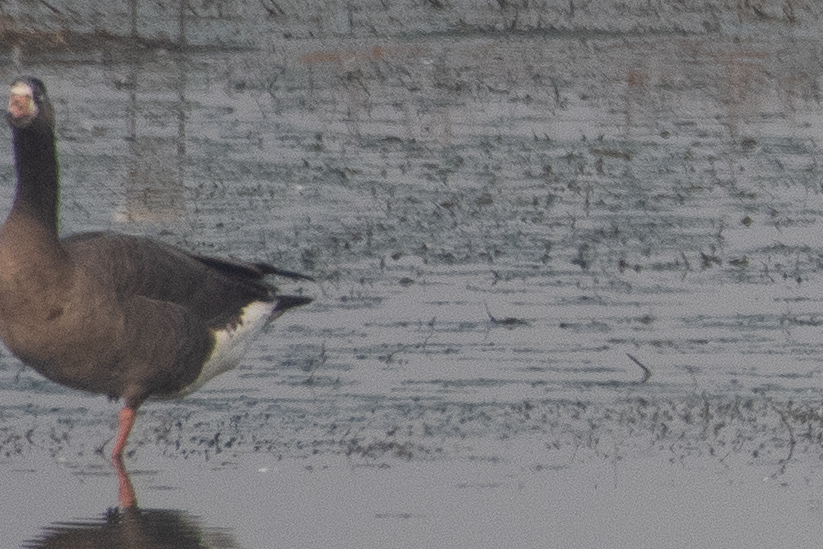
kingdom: Animalia
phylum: Chordata
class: Aves
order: Anseriformes
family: Anatidae
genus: Anser
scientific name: Anser albifrons
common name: Greater white-fronted goose
